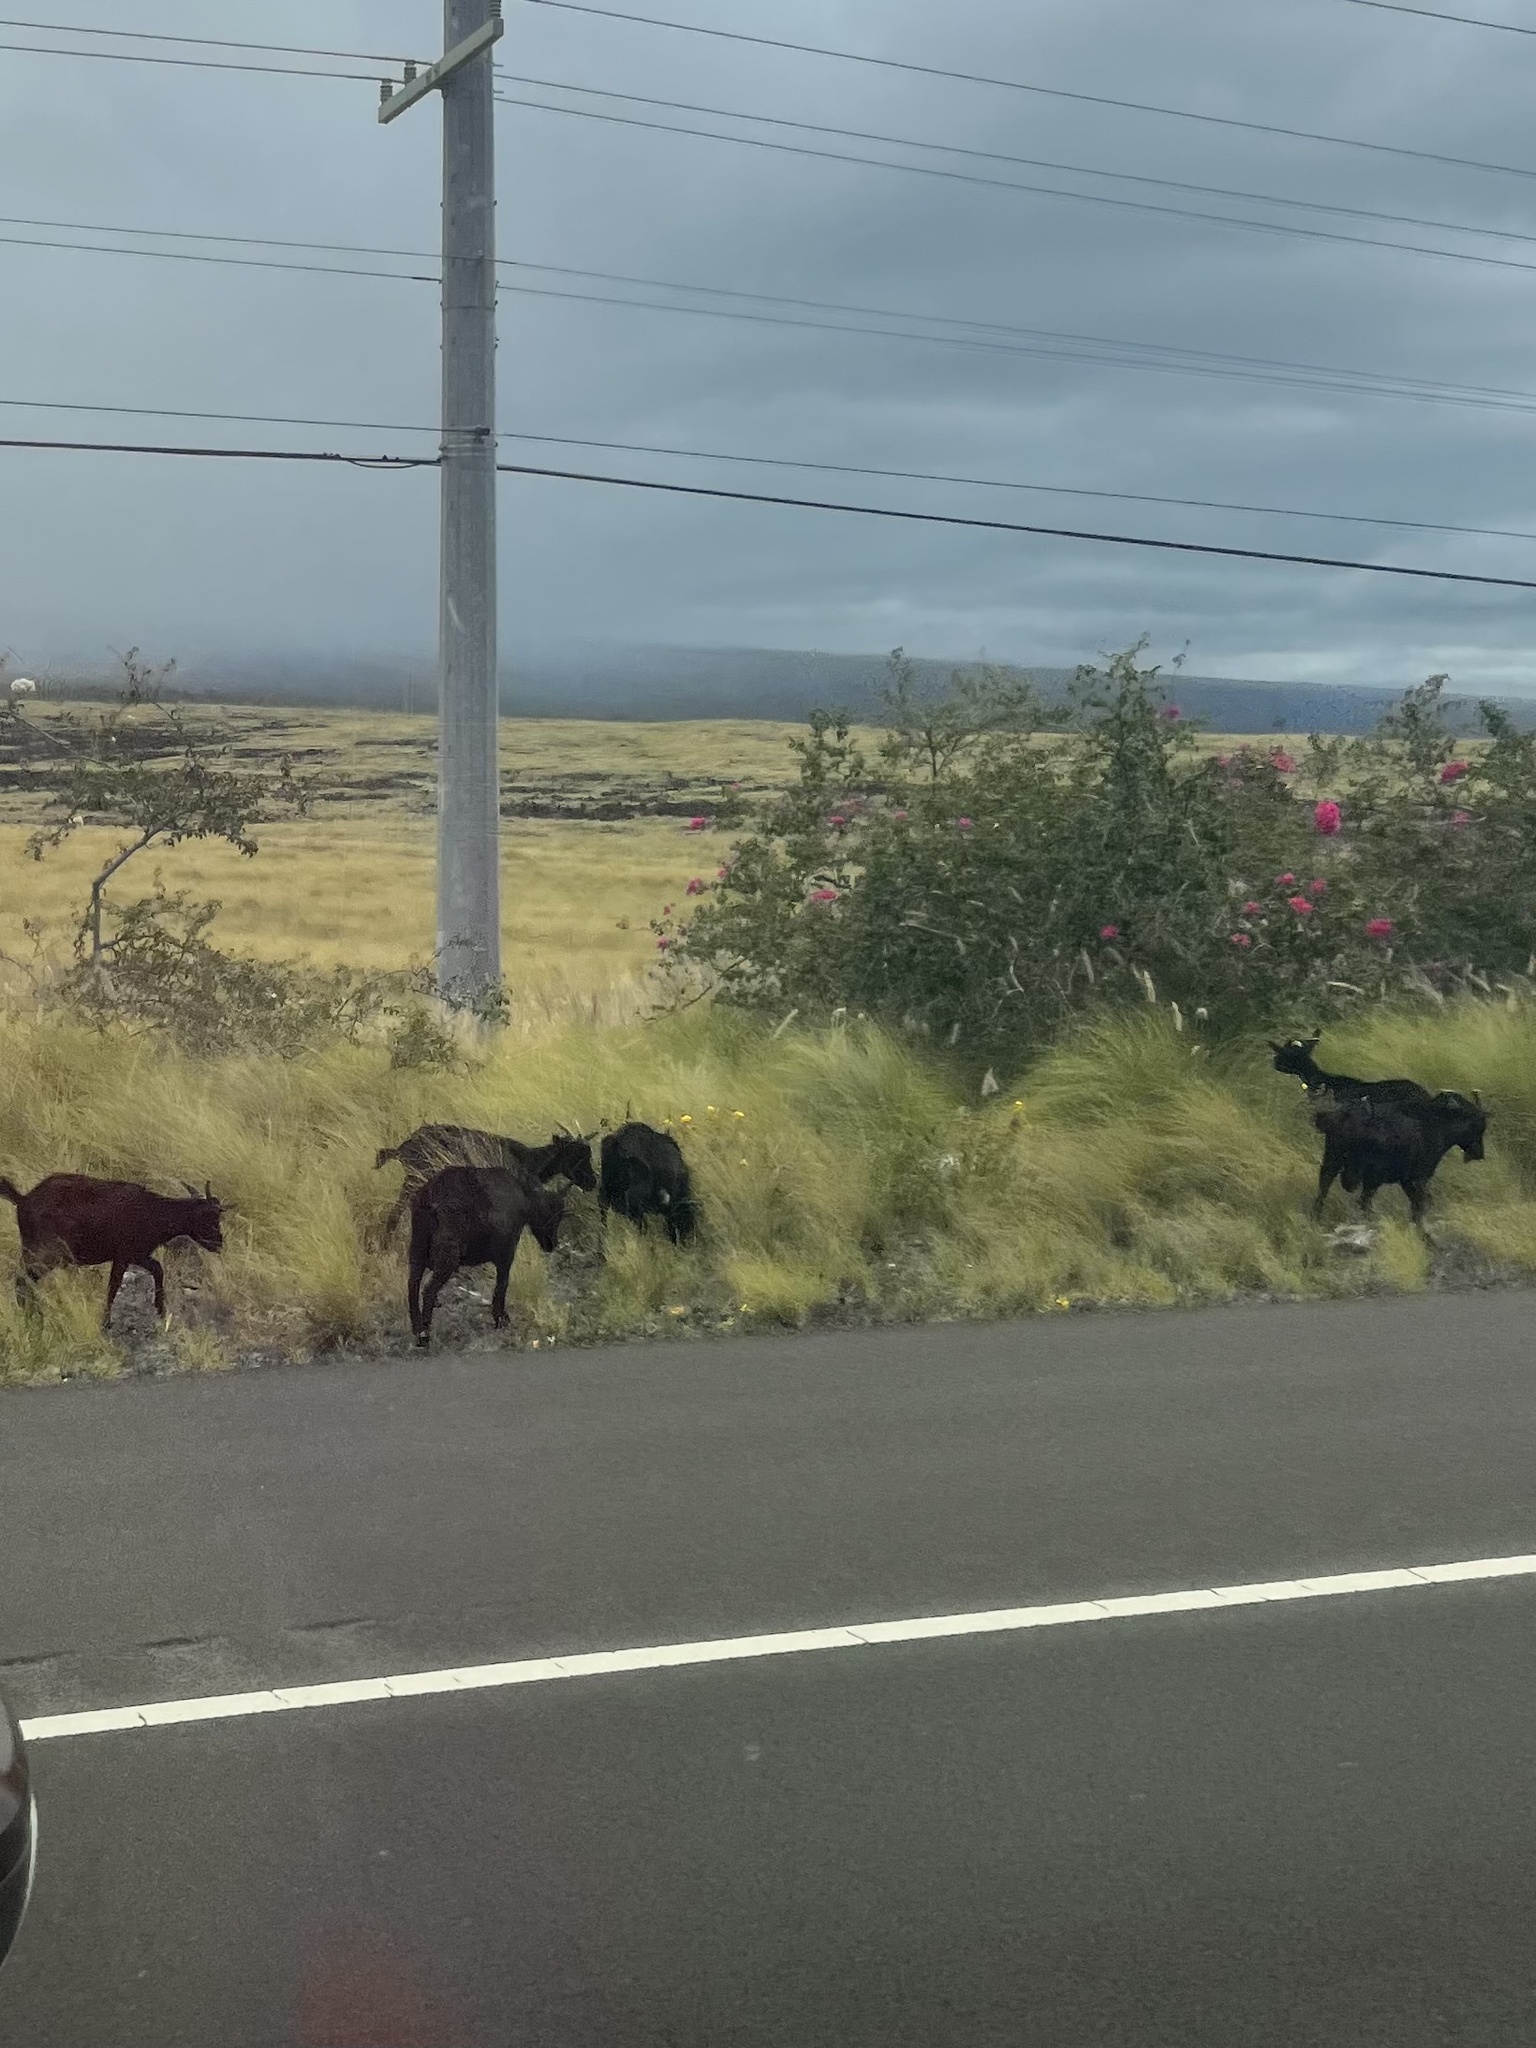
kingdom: Animalia
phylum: Chordata
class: Mammalia
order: Artiodactyla
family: Bovidae
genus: Capra
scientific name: Capra hircus
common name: Domestic goat
